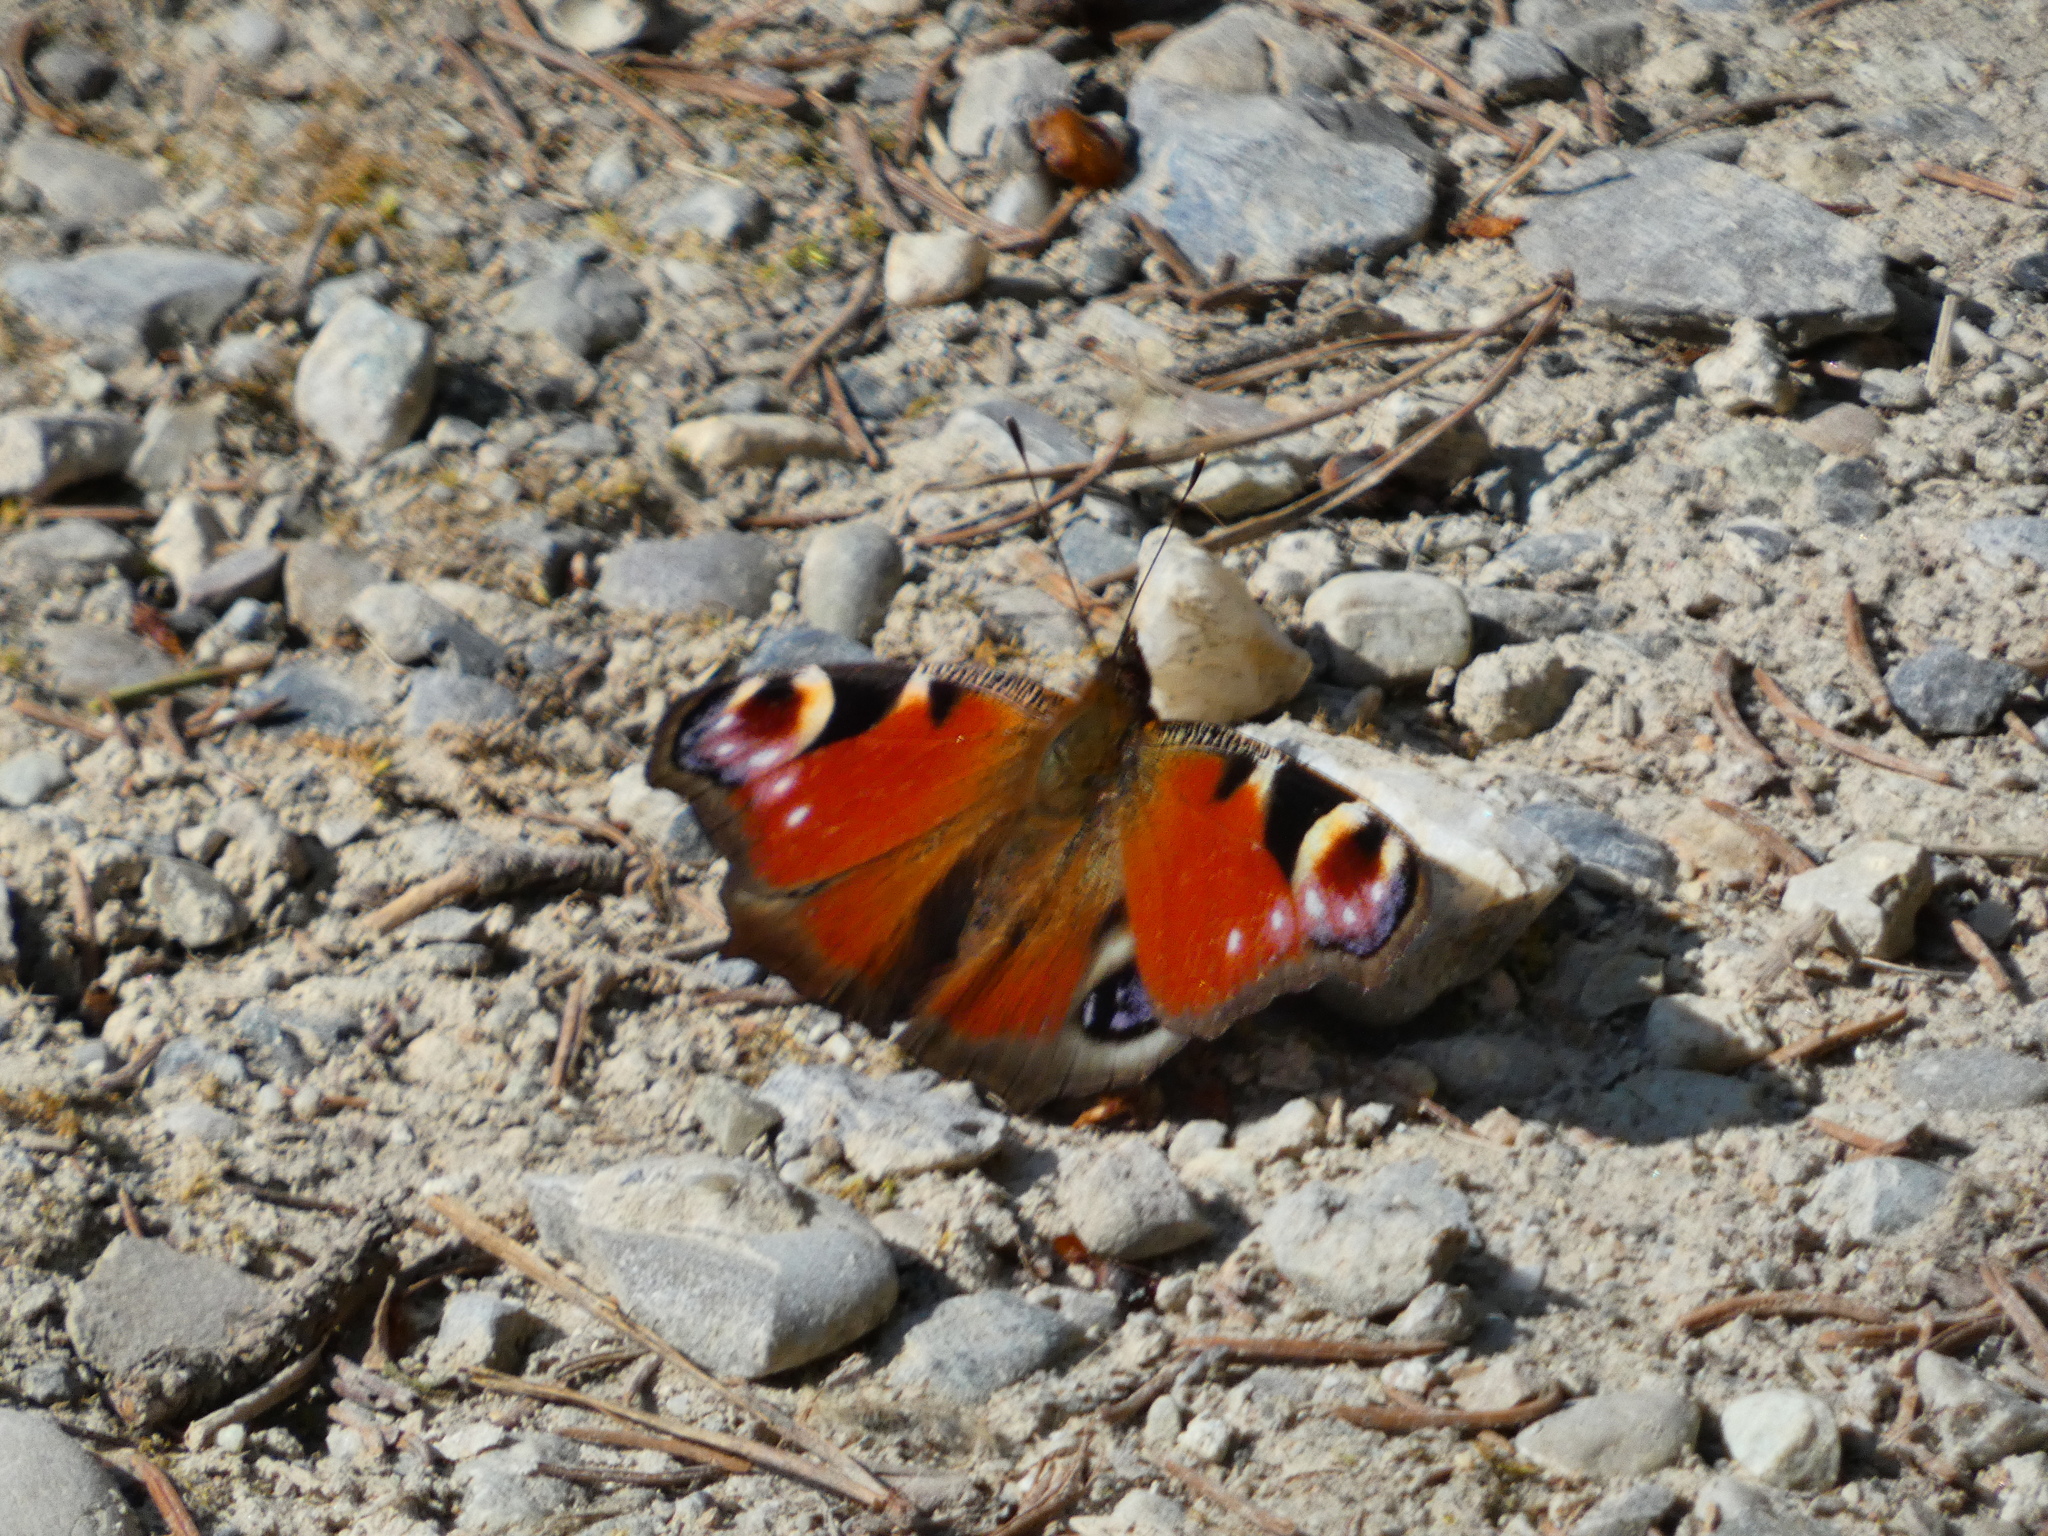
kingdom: Animalia
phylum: Arthropoda
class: Insecta
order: Lepidoptera
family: Nymphalidae
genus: Aglais
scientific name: Aglais io
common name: Peacock
